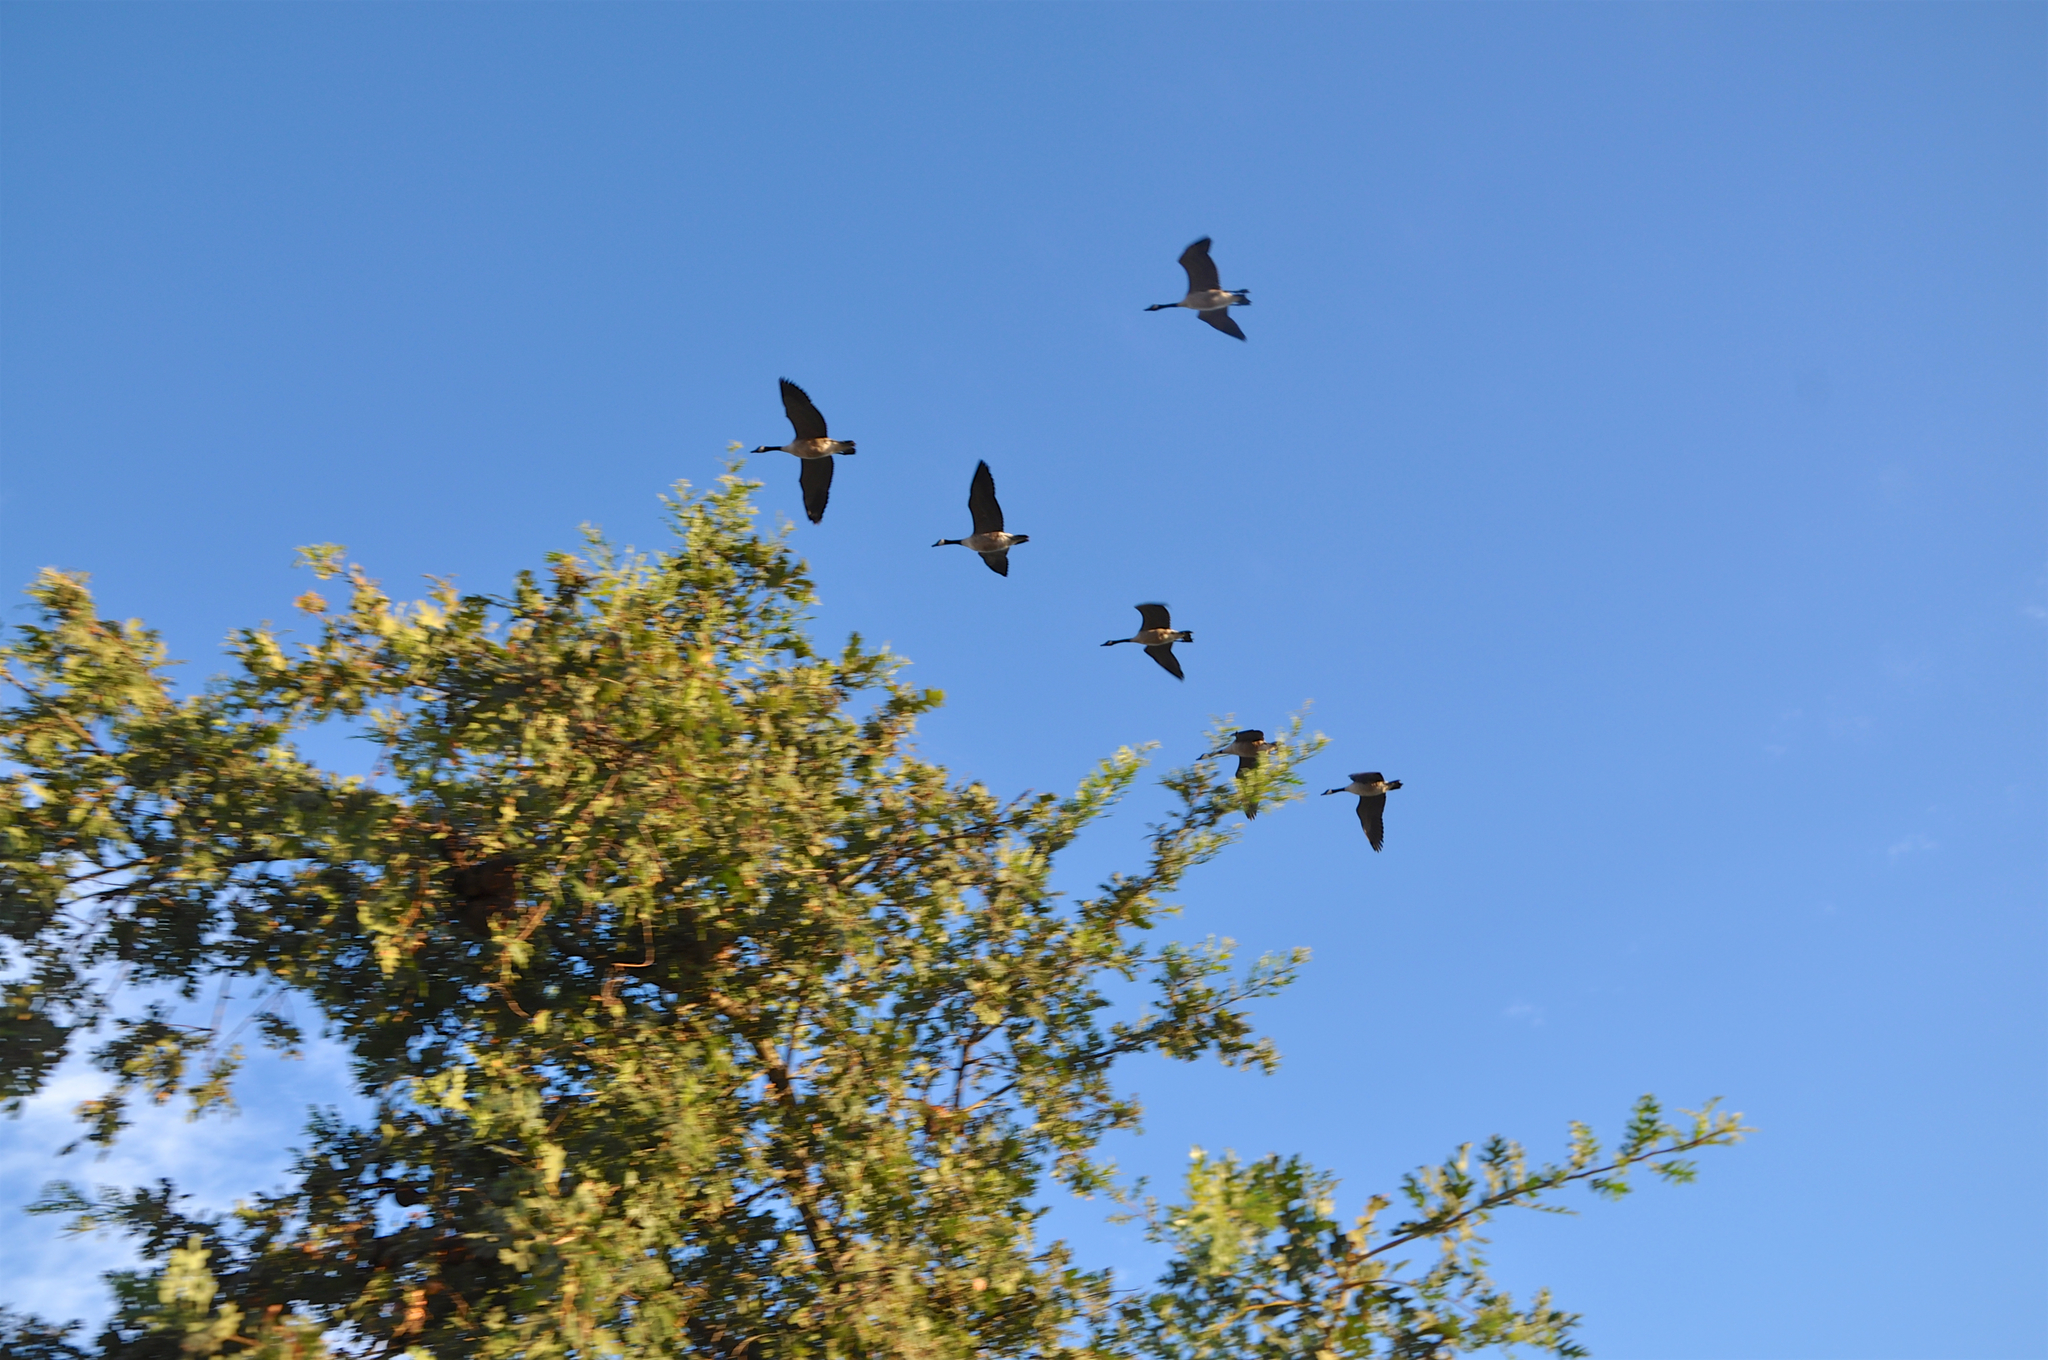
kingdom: Animalia
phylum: Chordata
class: Aves
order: Anseriformes
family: Anatidae
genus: Branta
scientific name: Branta canadensis
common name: Canada goose
